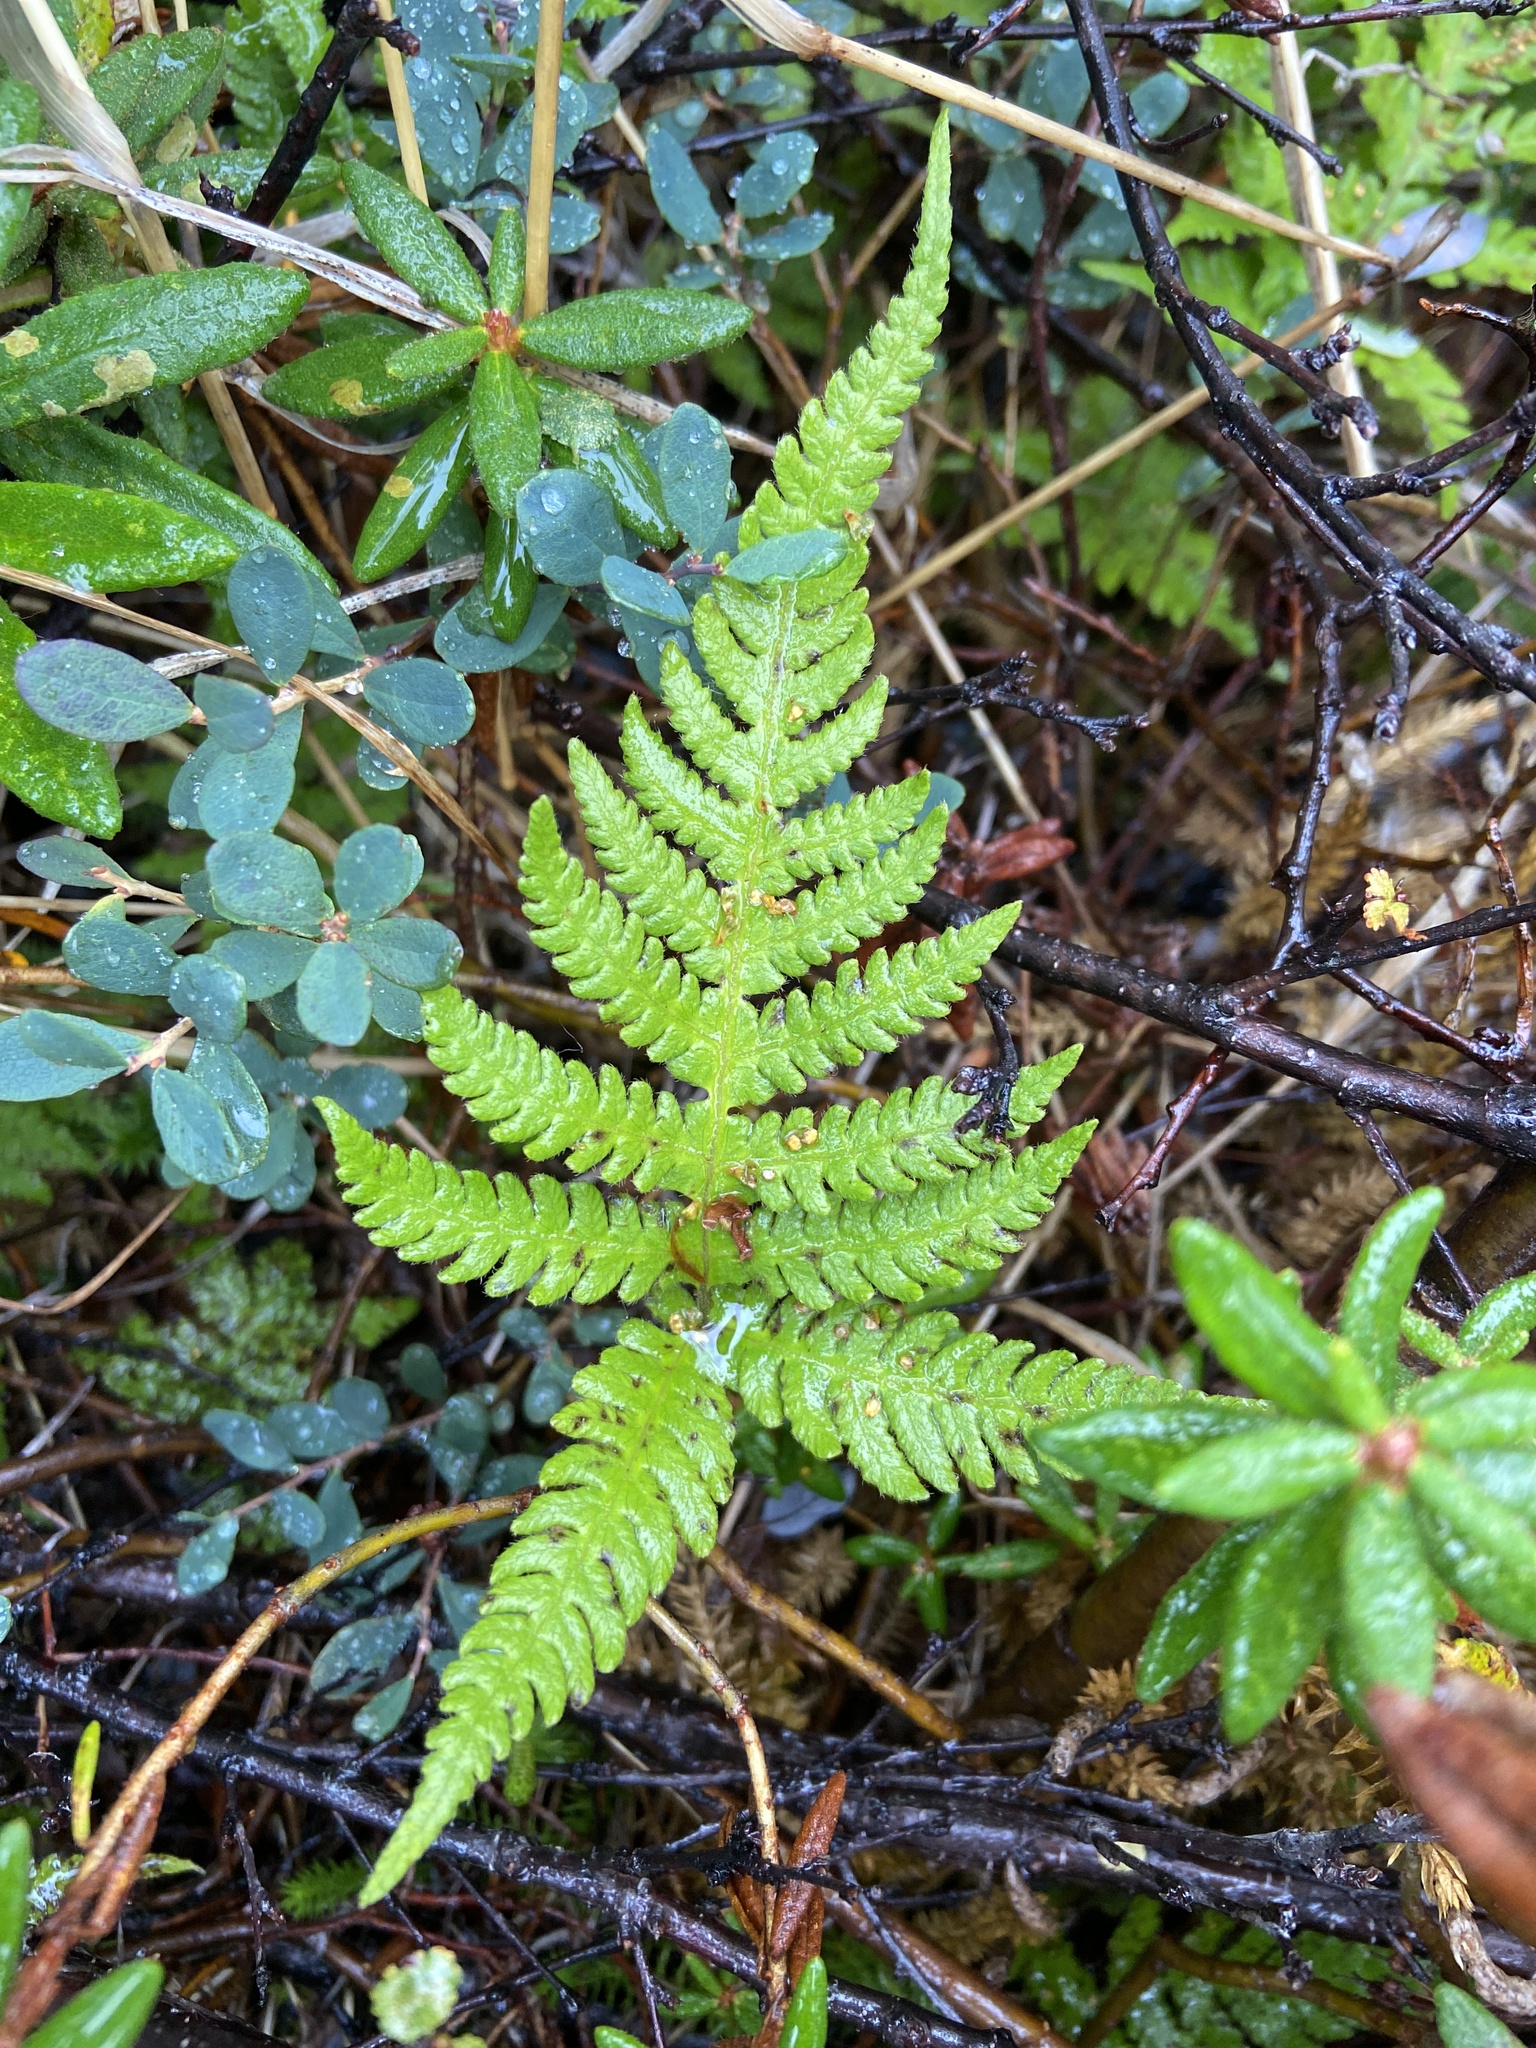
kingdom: Plantae
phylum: Tracheophyta
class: Polypodiopsida
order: Polypodiales
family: Thelypteridaceae
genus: Phegopteris
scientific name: Phegopteris connectilis
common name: Beech fern
